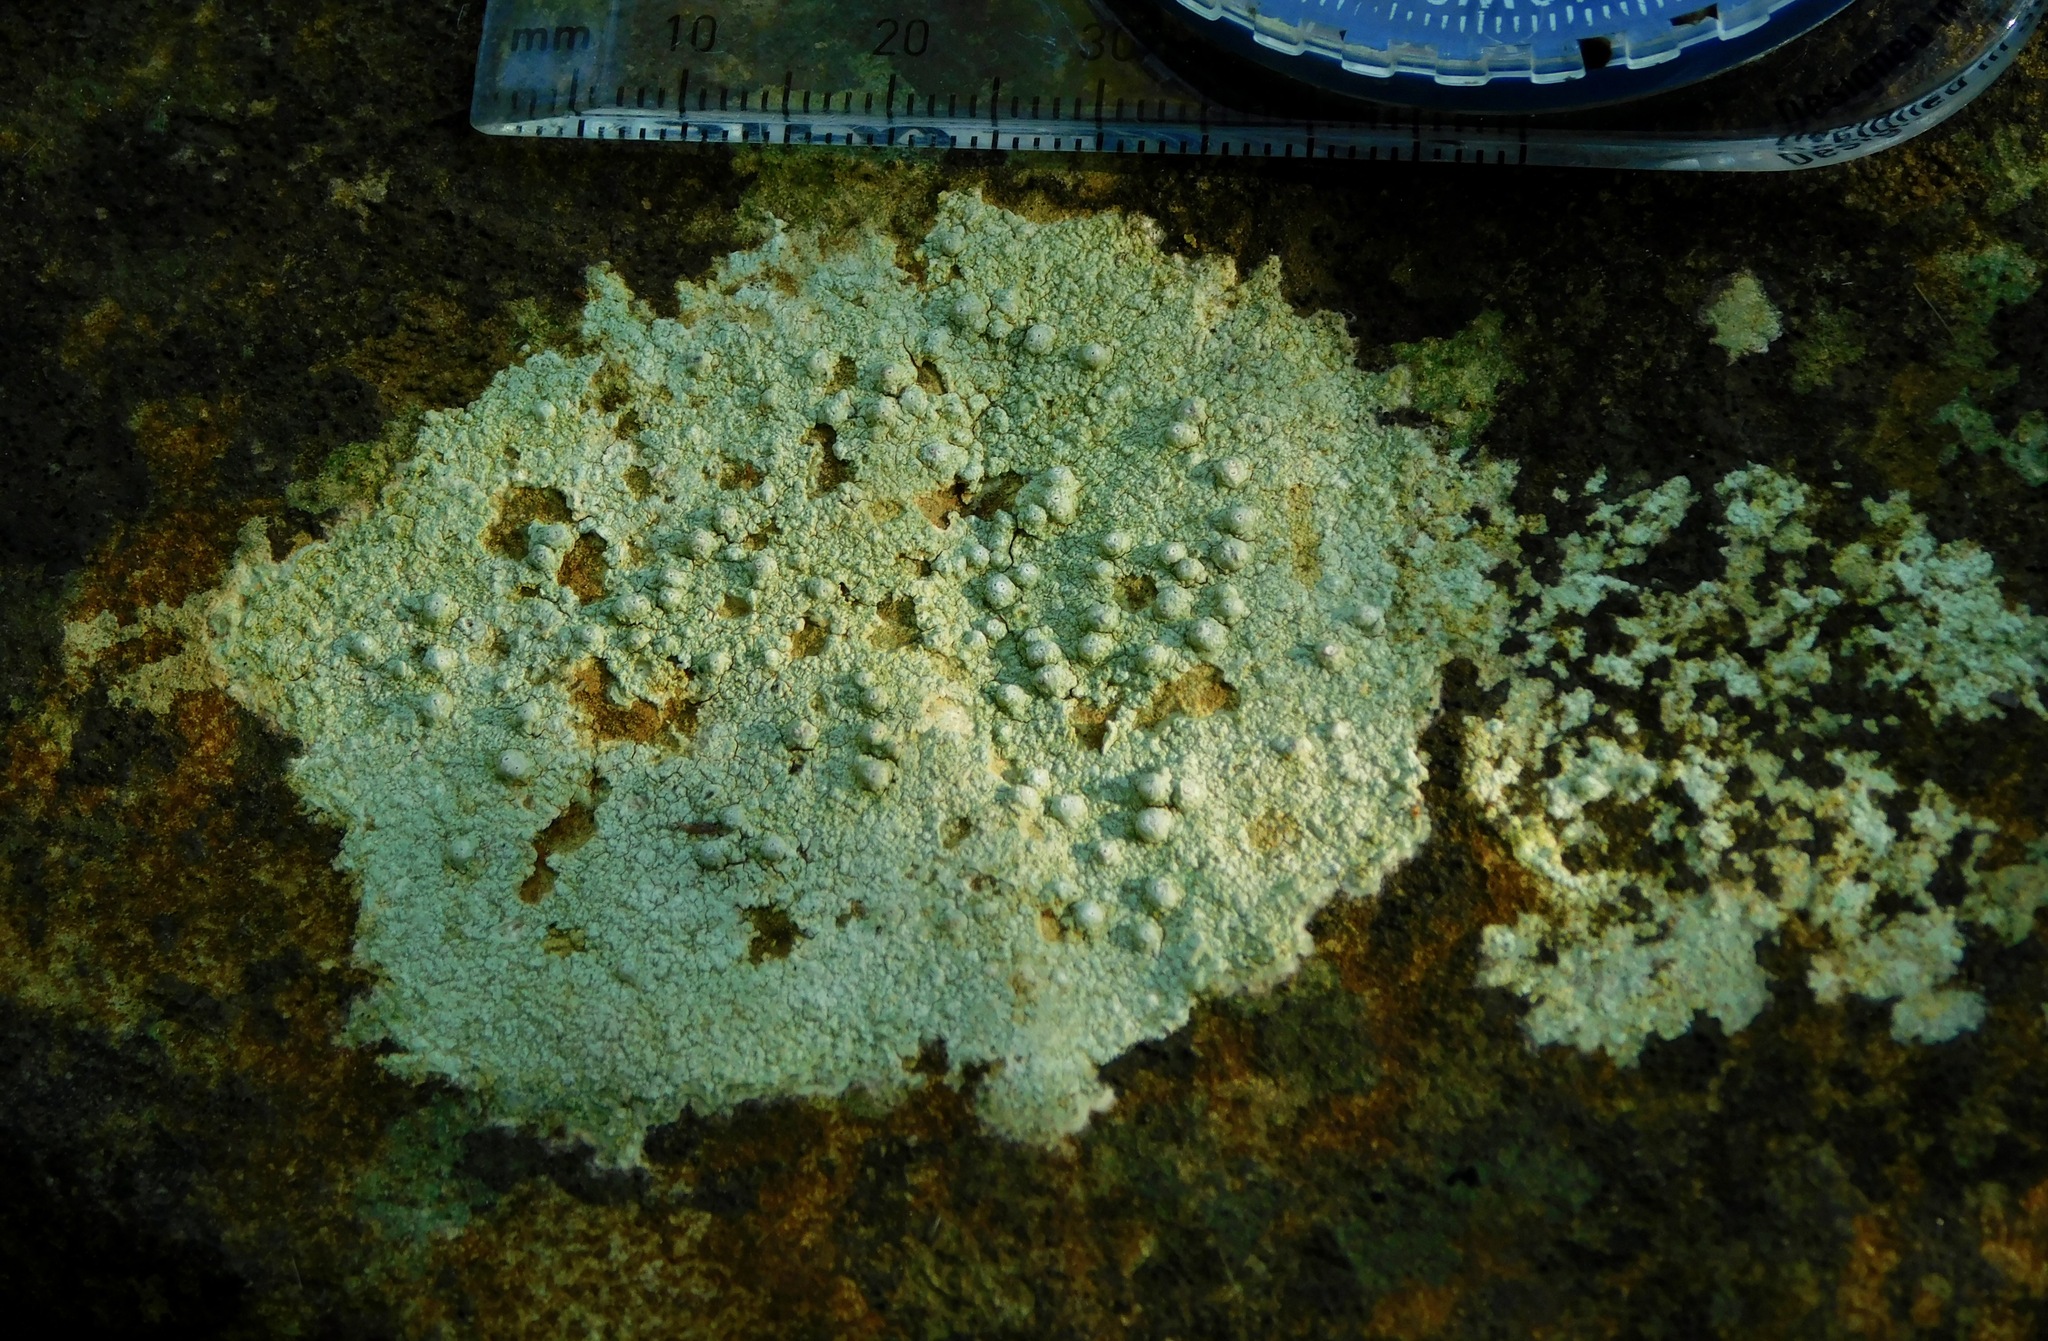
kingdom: Fungi
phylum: Ascomycota
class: Lecanoromycetes
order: Pertusariales
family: Pertusariaceae
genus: Pertusaria
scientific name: Pertusaria plittiana
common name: Rock wart lichen
